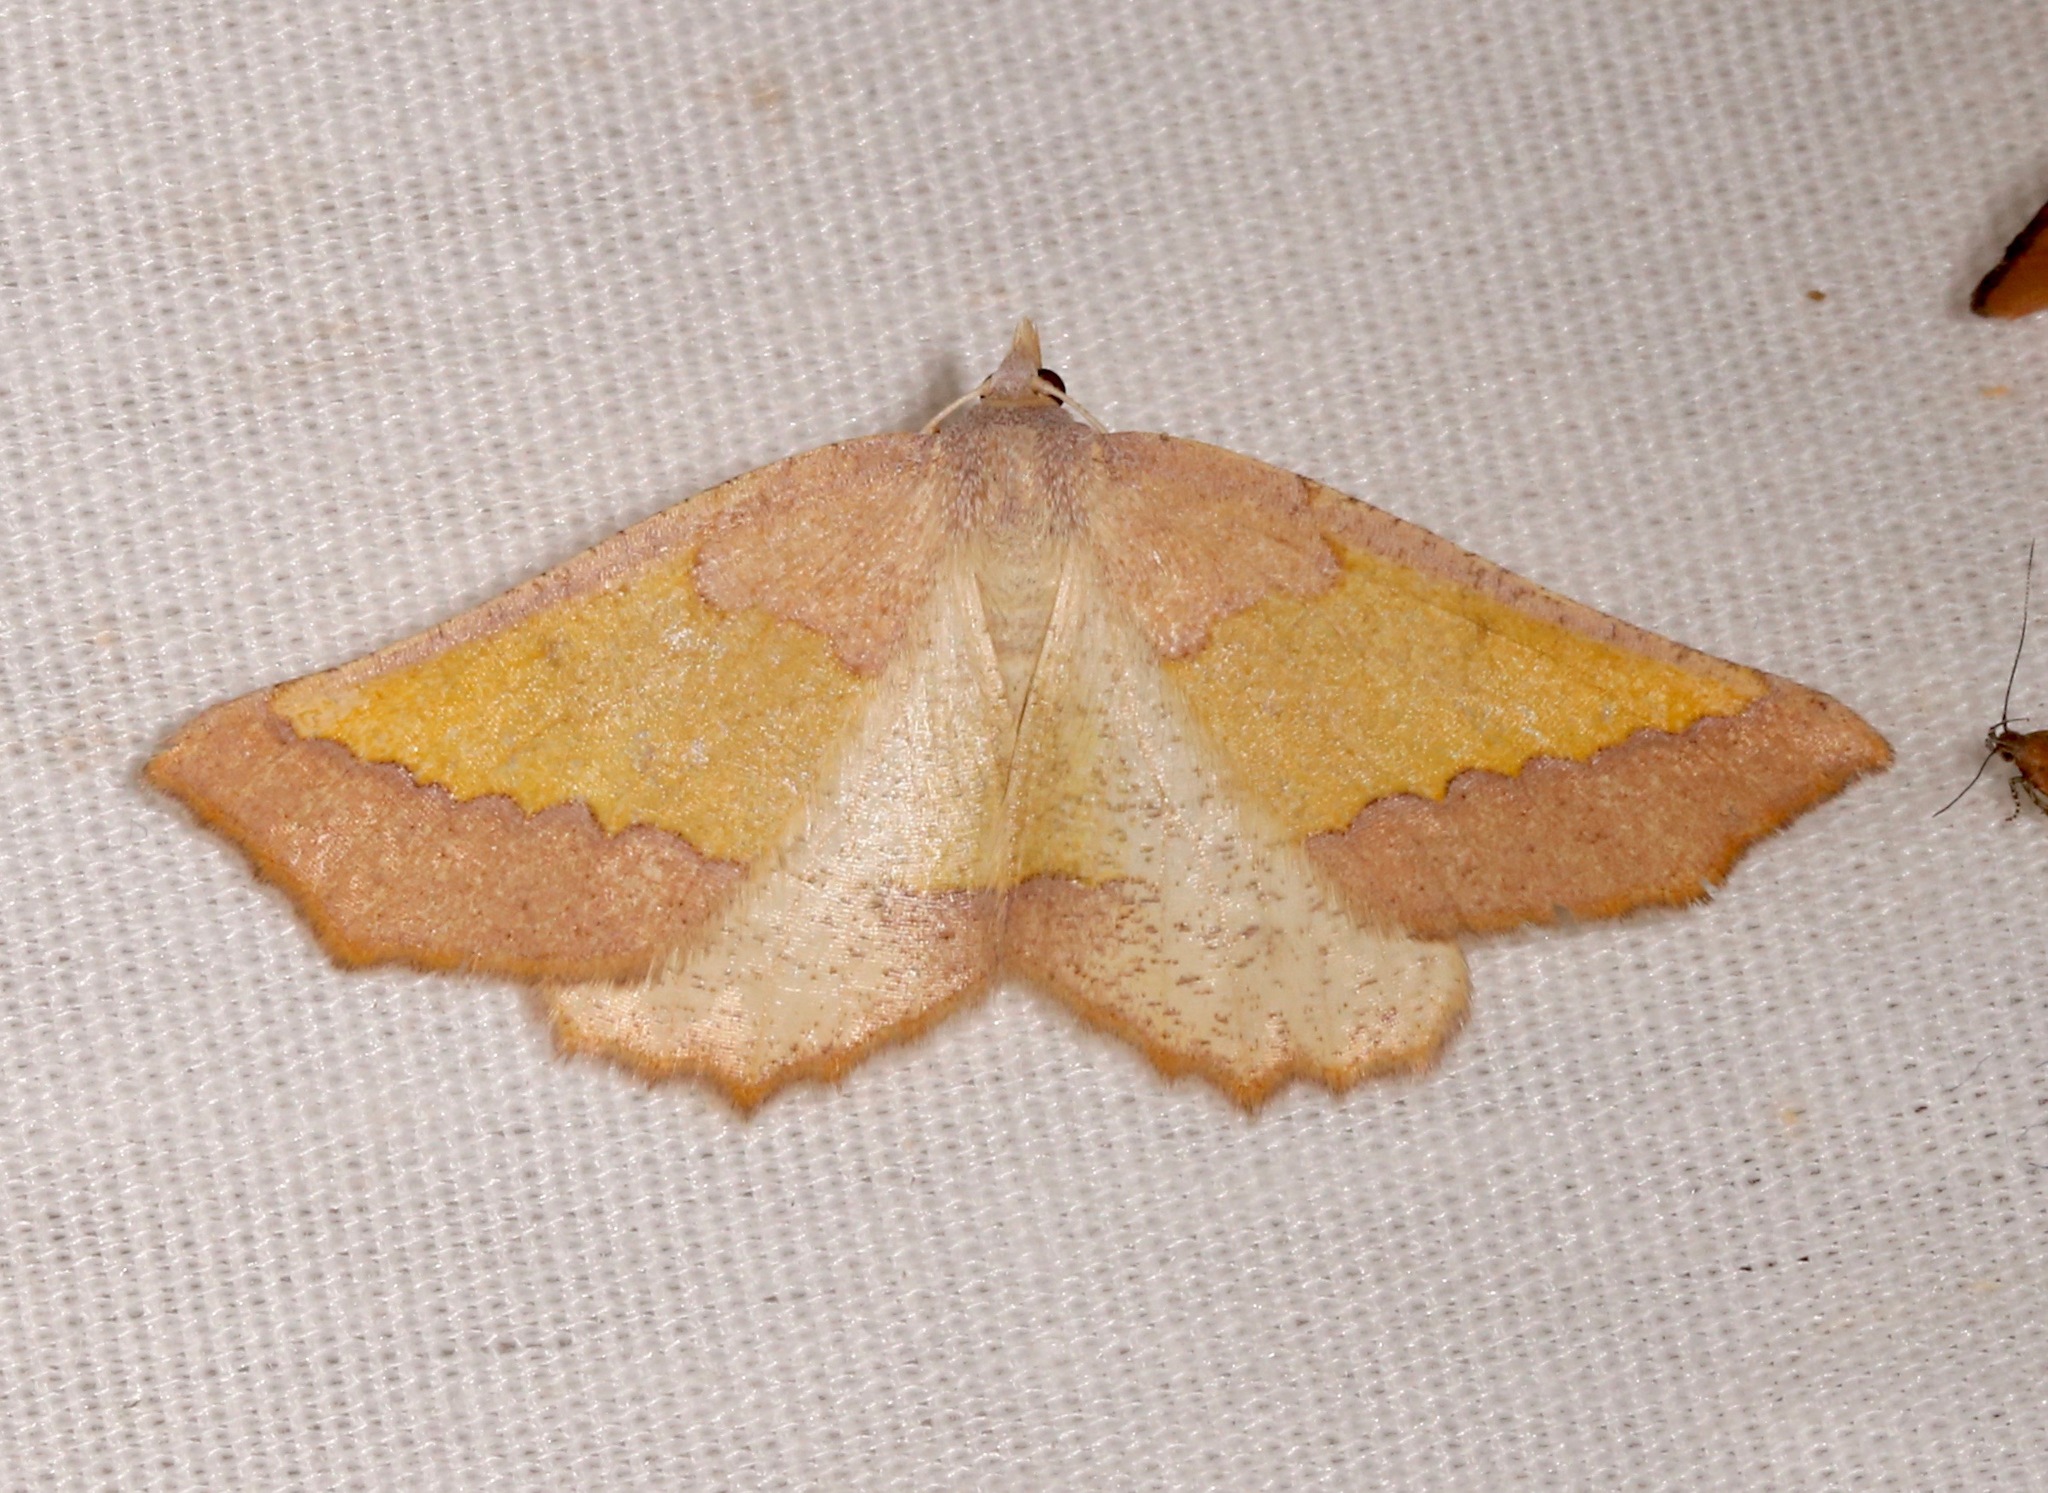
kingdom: Animalia
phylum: Arthropoda
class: Insecta
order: Lepidoptera
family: Geometridae
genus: Lychnosea
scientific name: Lychnosea helveolaria
